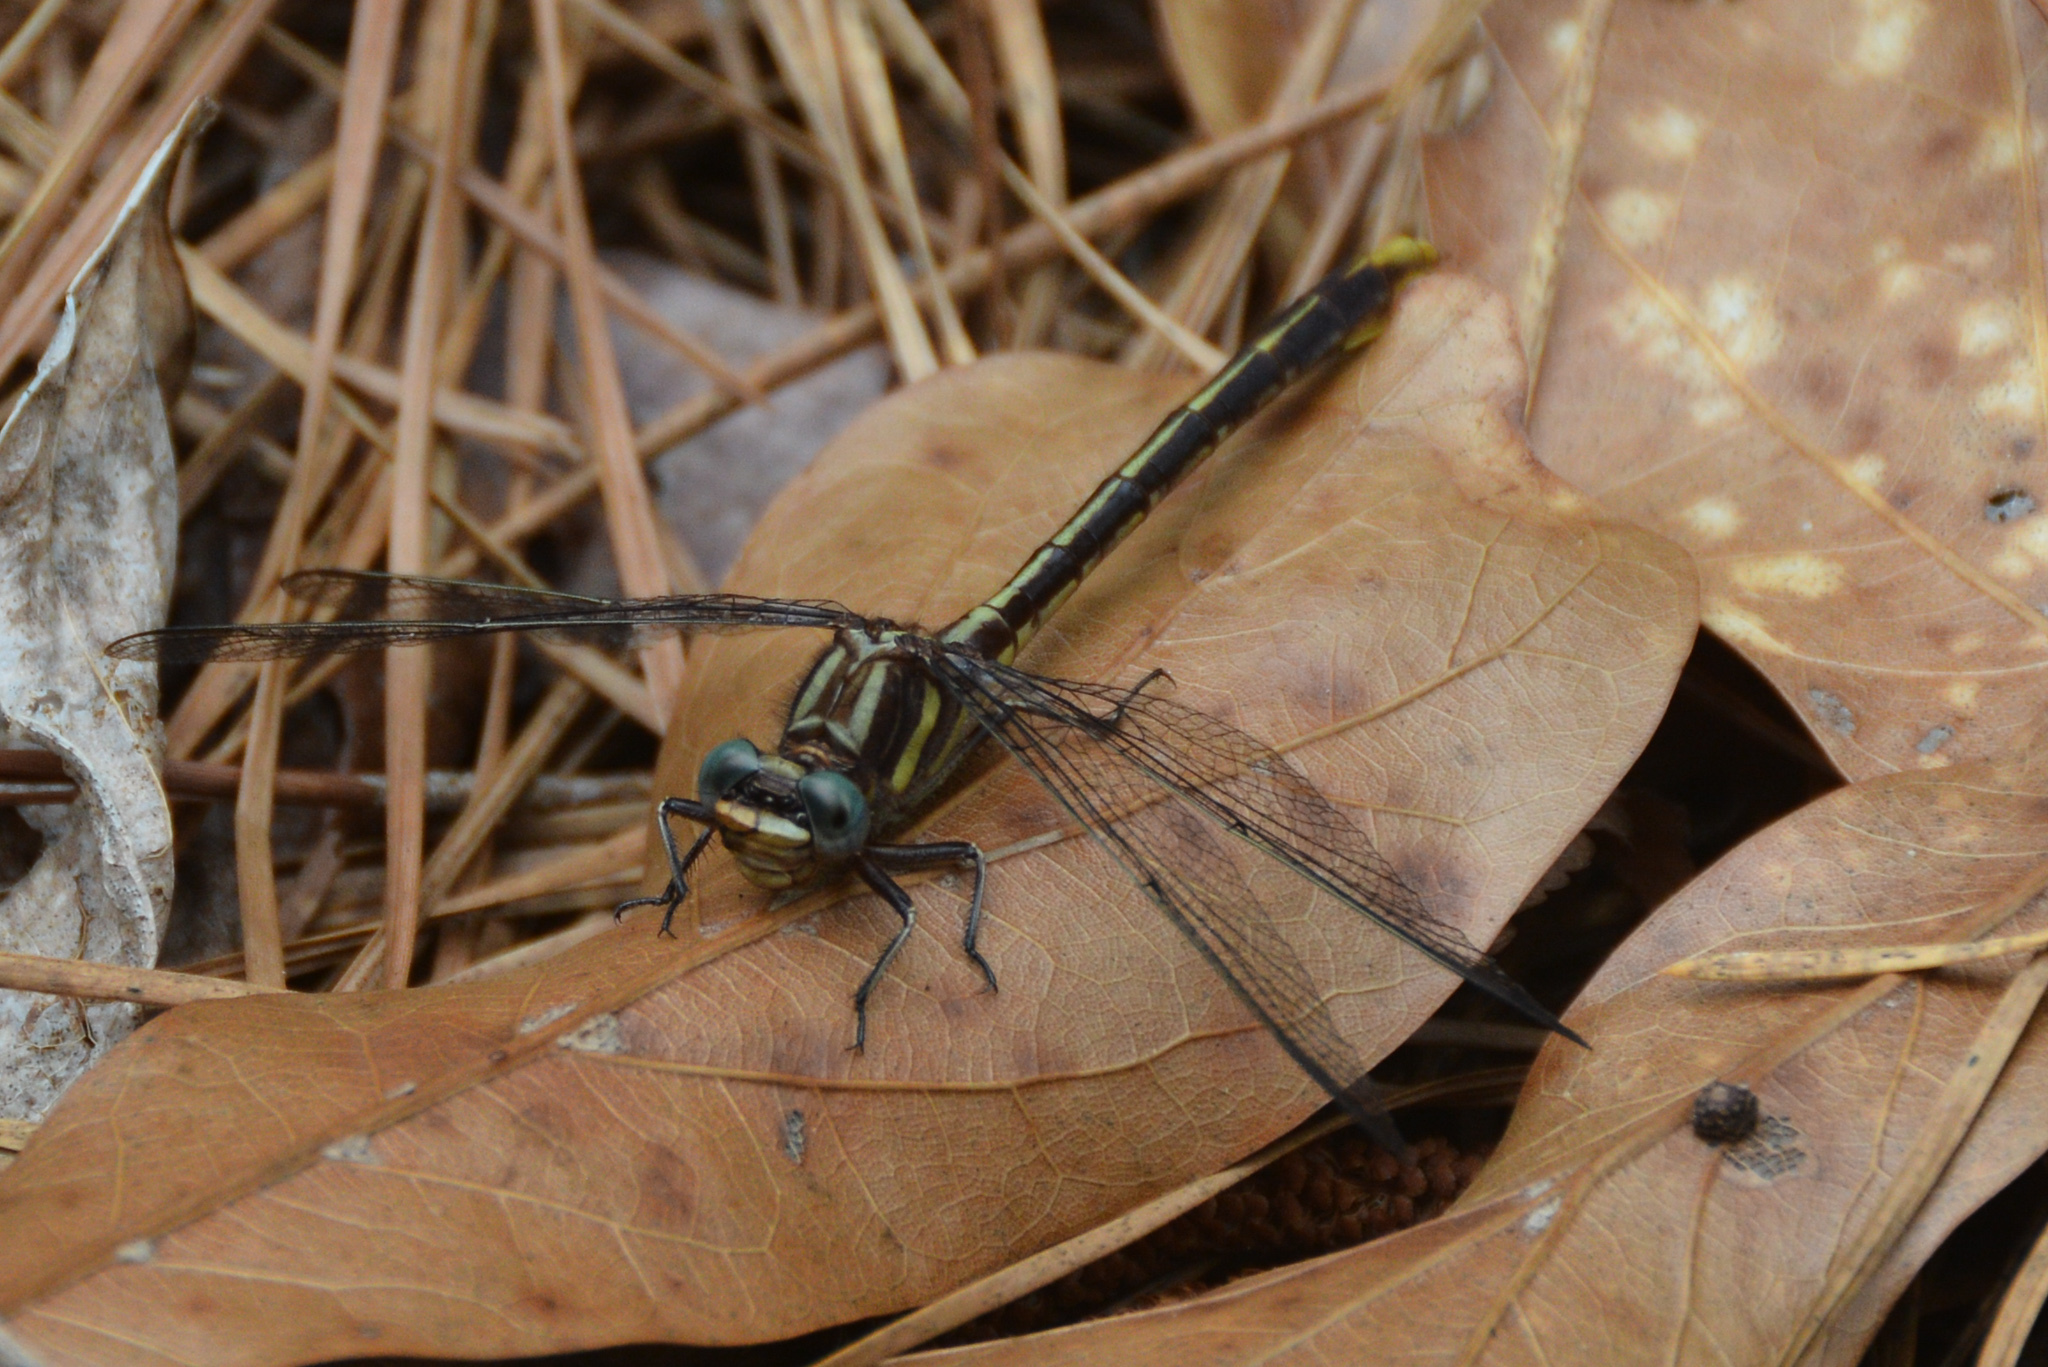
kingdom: Animalia
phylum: Arthropoda
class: Insecta
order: Odonata
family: Gomphidae
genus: Phanogomphus
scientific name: Phanogomphus exilis
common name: Lancet clubtail
